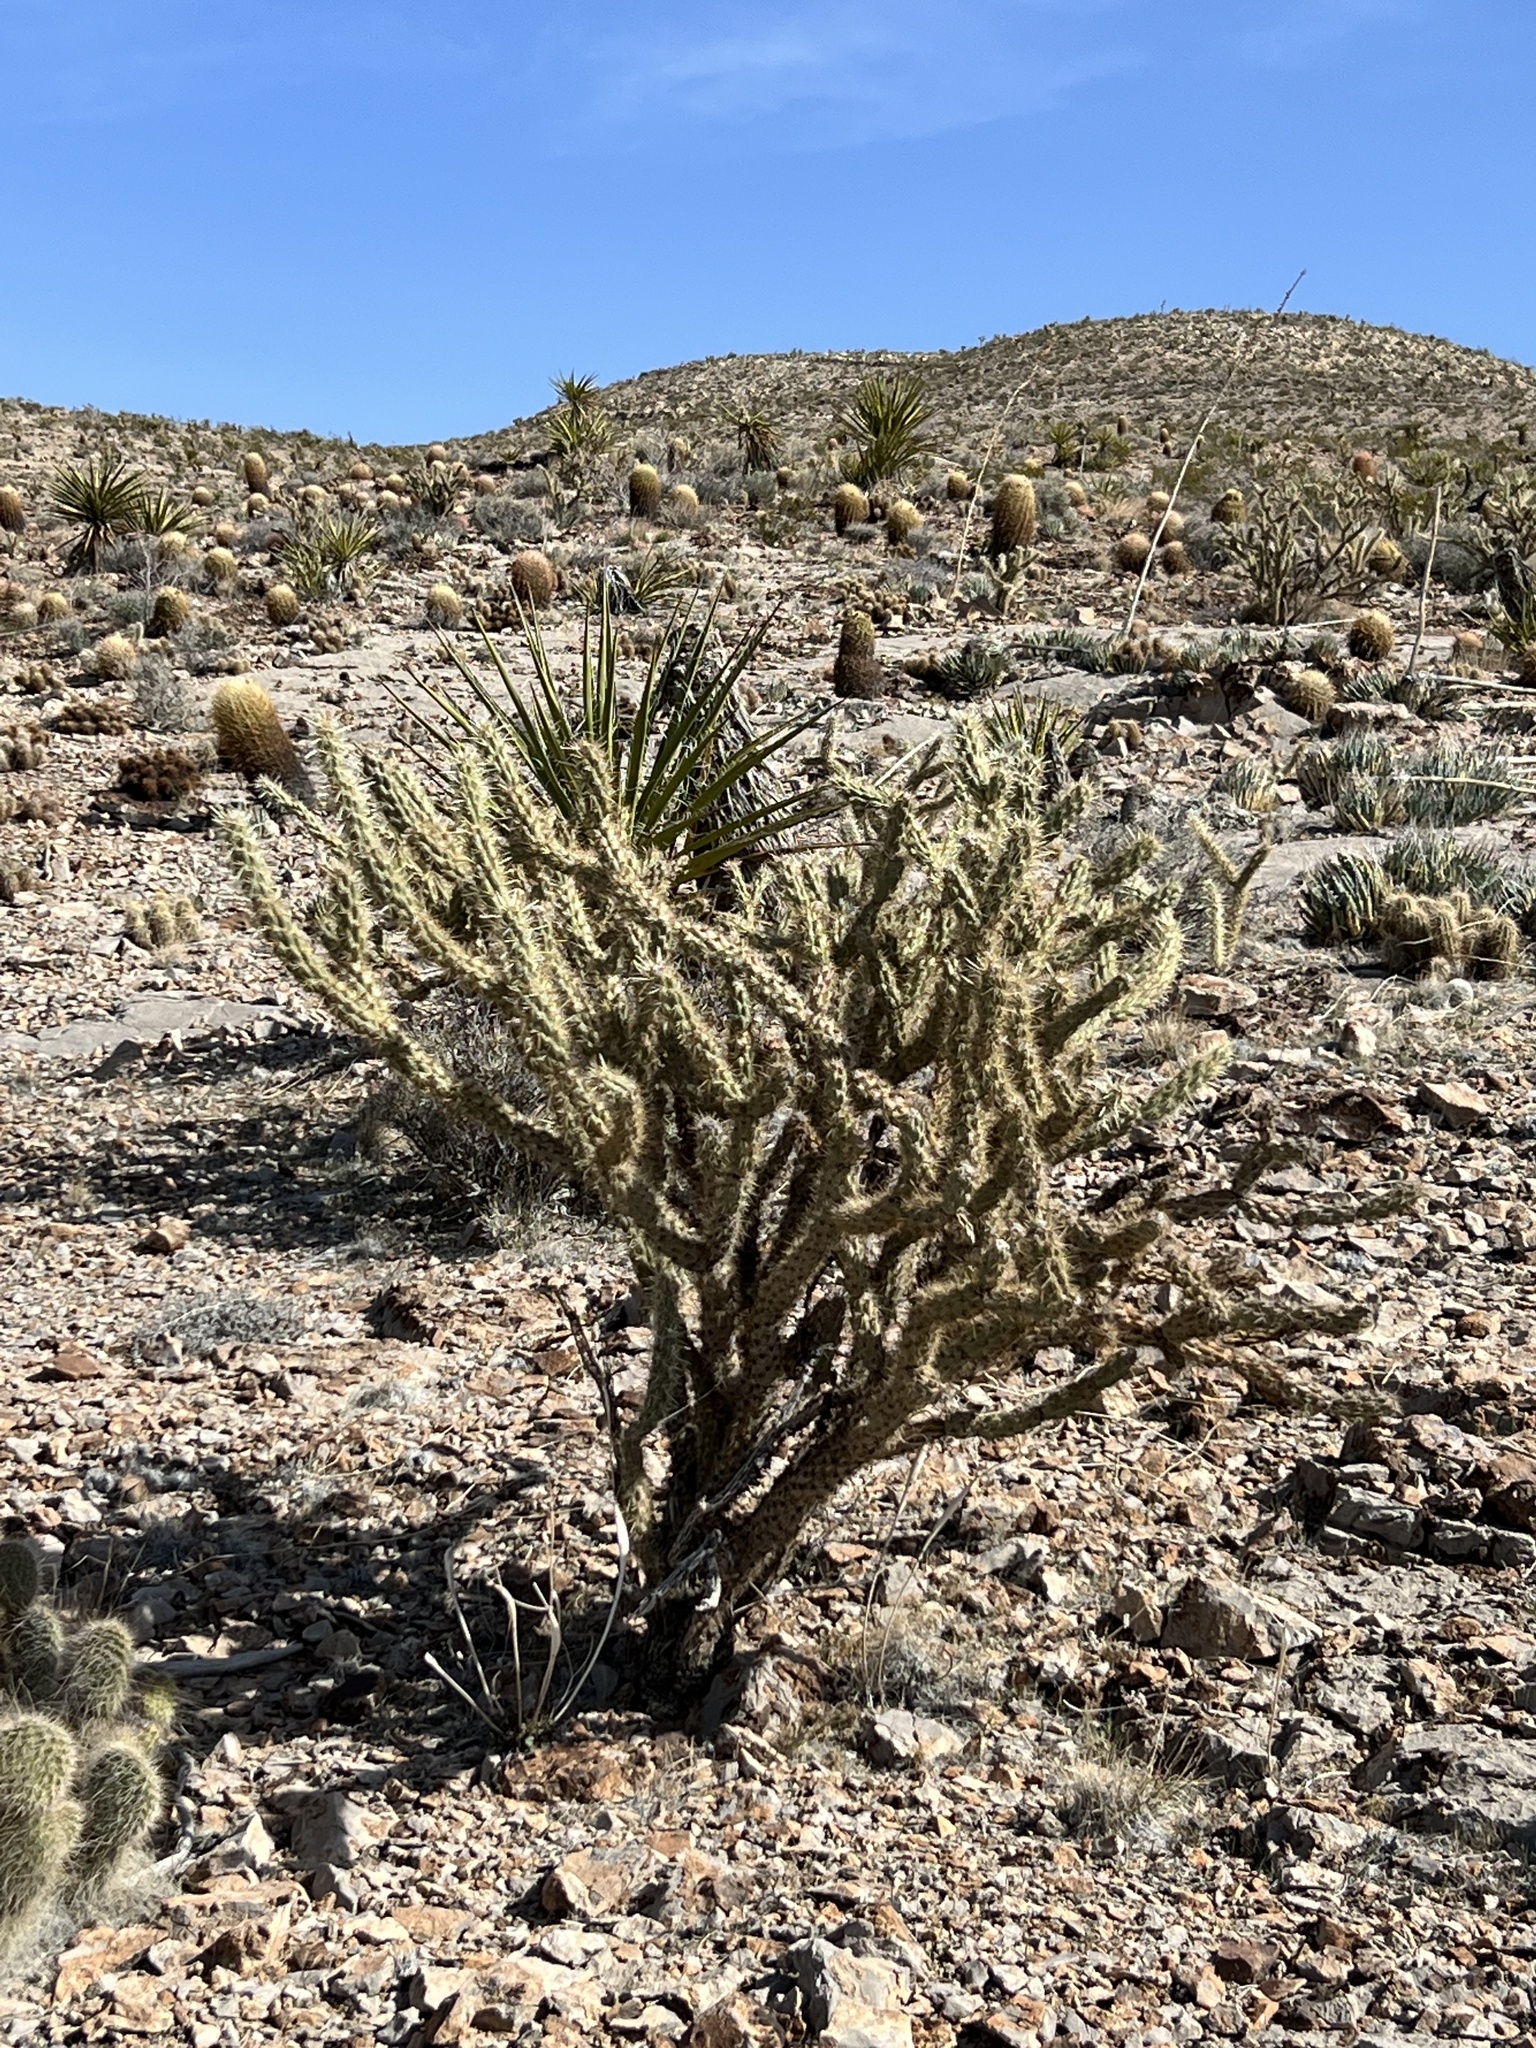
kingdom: Plantae
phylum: Tracheophyta
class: Magnoliopsida
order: Caryophyllales
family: Cactaceae
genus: Cylindropuntia
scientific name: Cylindropuntia acanthocarpa
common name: Buckhorn cholla
